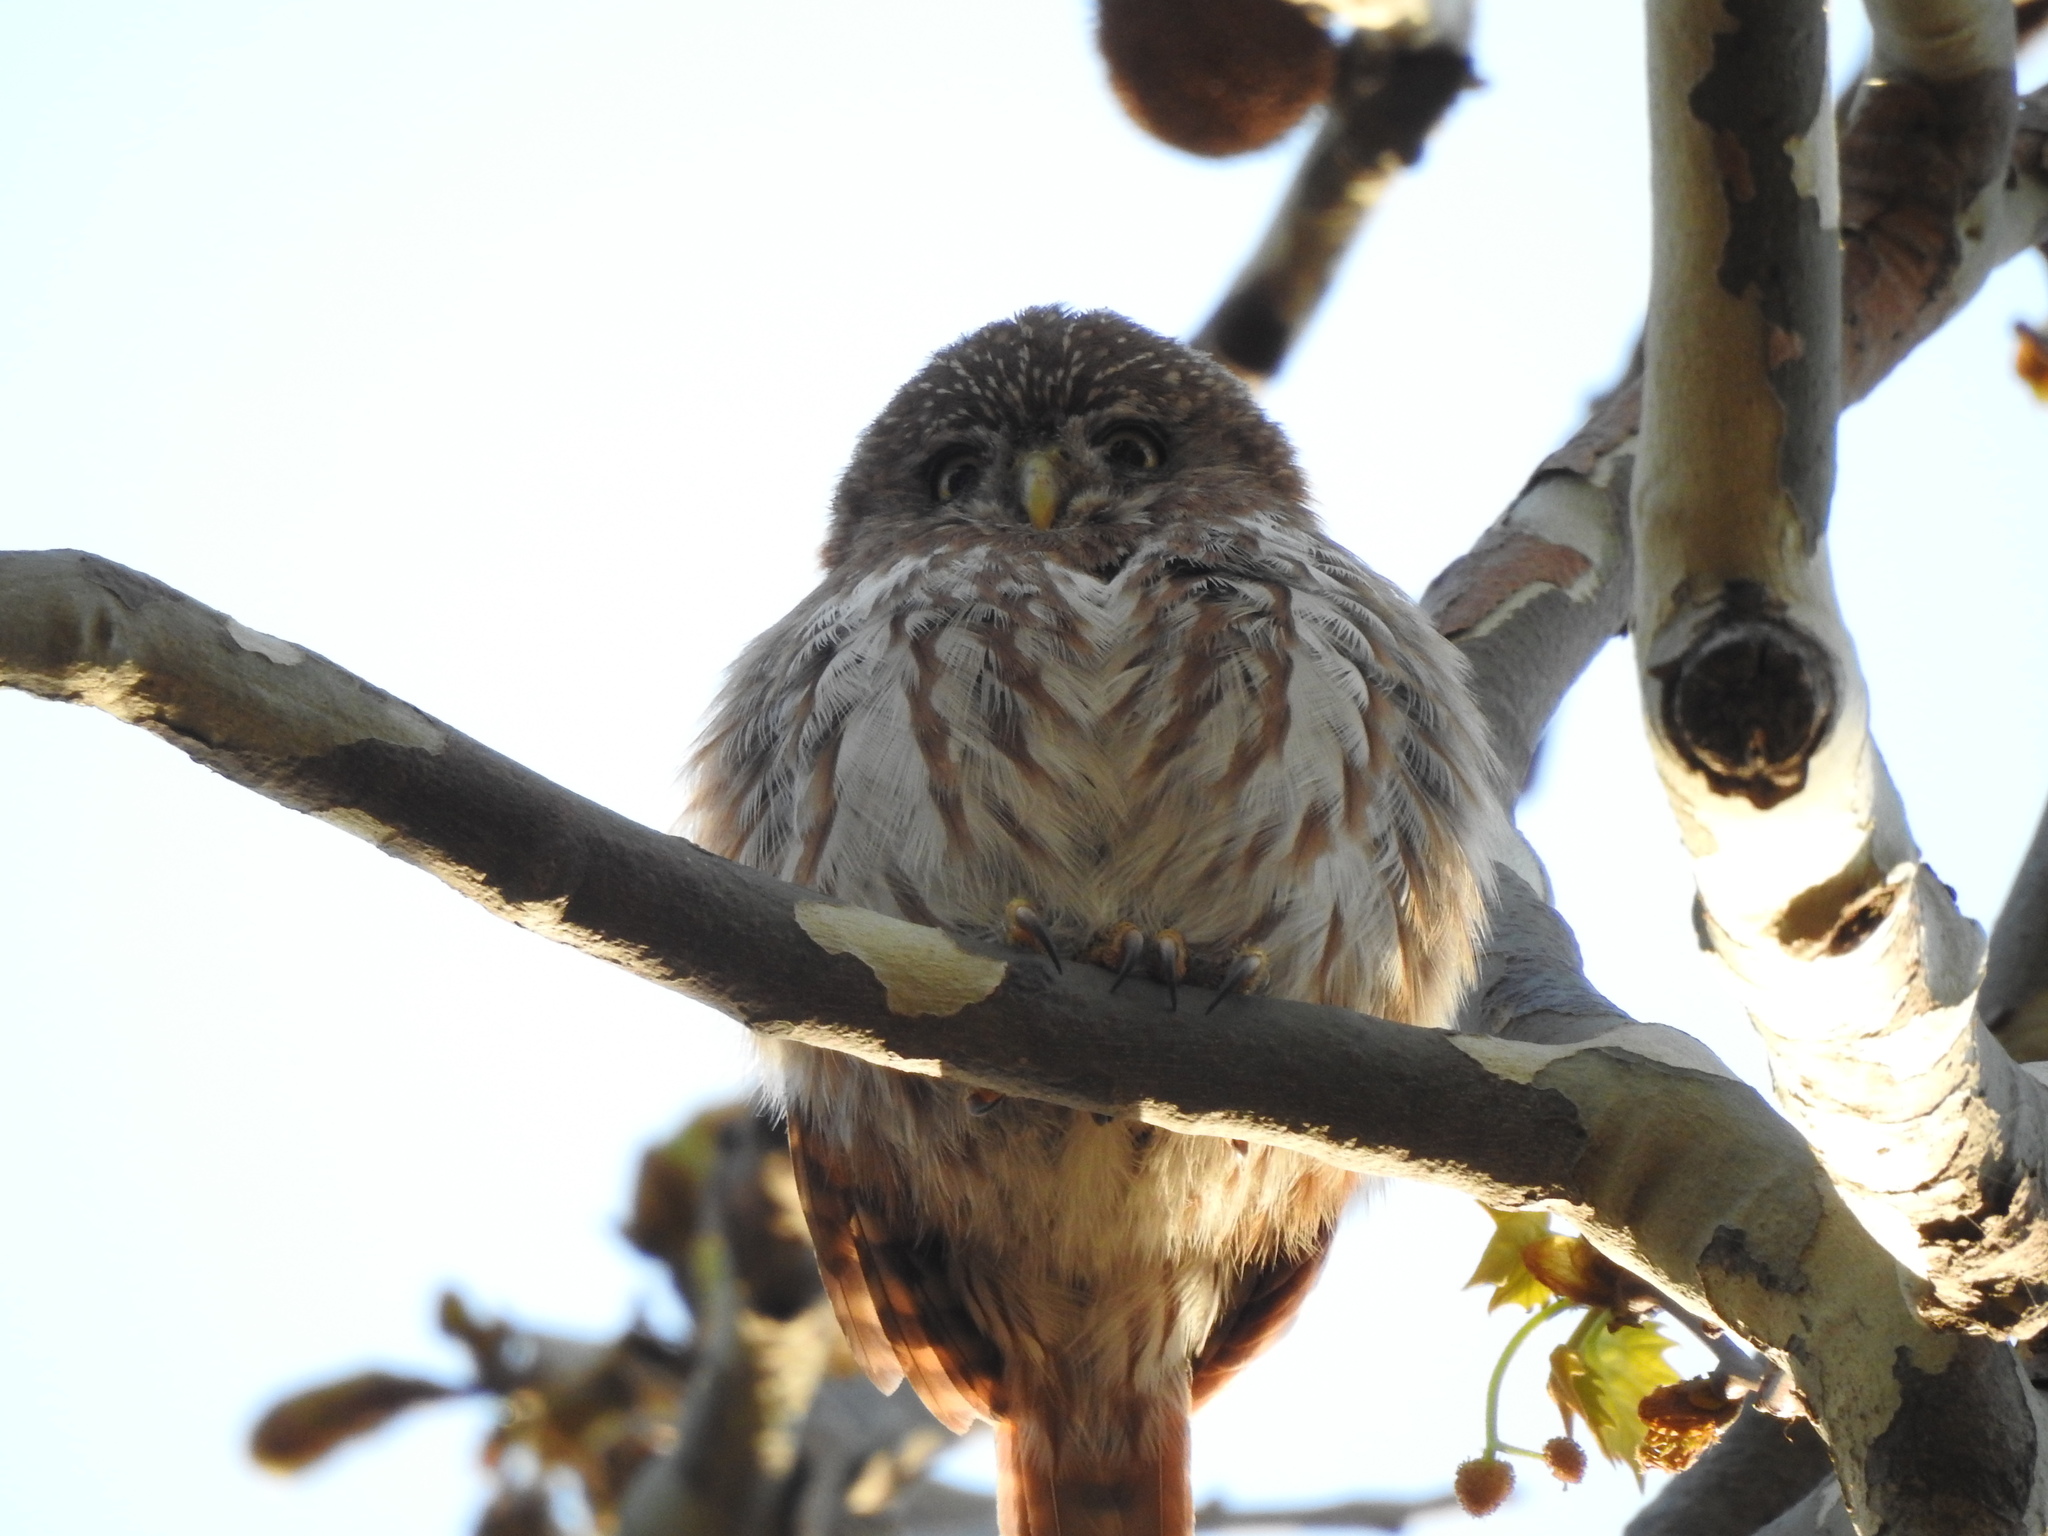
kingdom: Animalia
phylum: Chordata
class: Aves
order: Strigiformes
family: Strigidae
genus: Glaucidium
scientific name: Glaucidium brasilianum
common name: Ferruginous pygmy-owl
